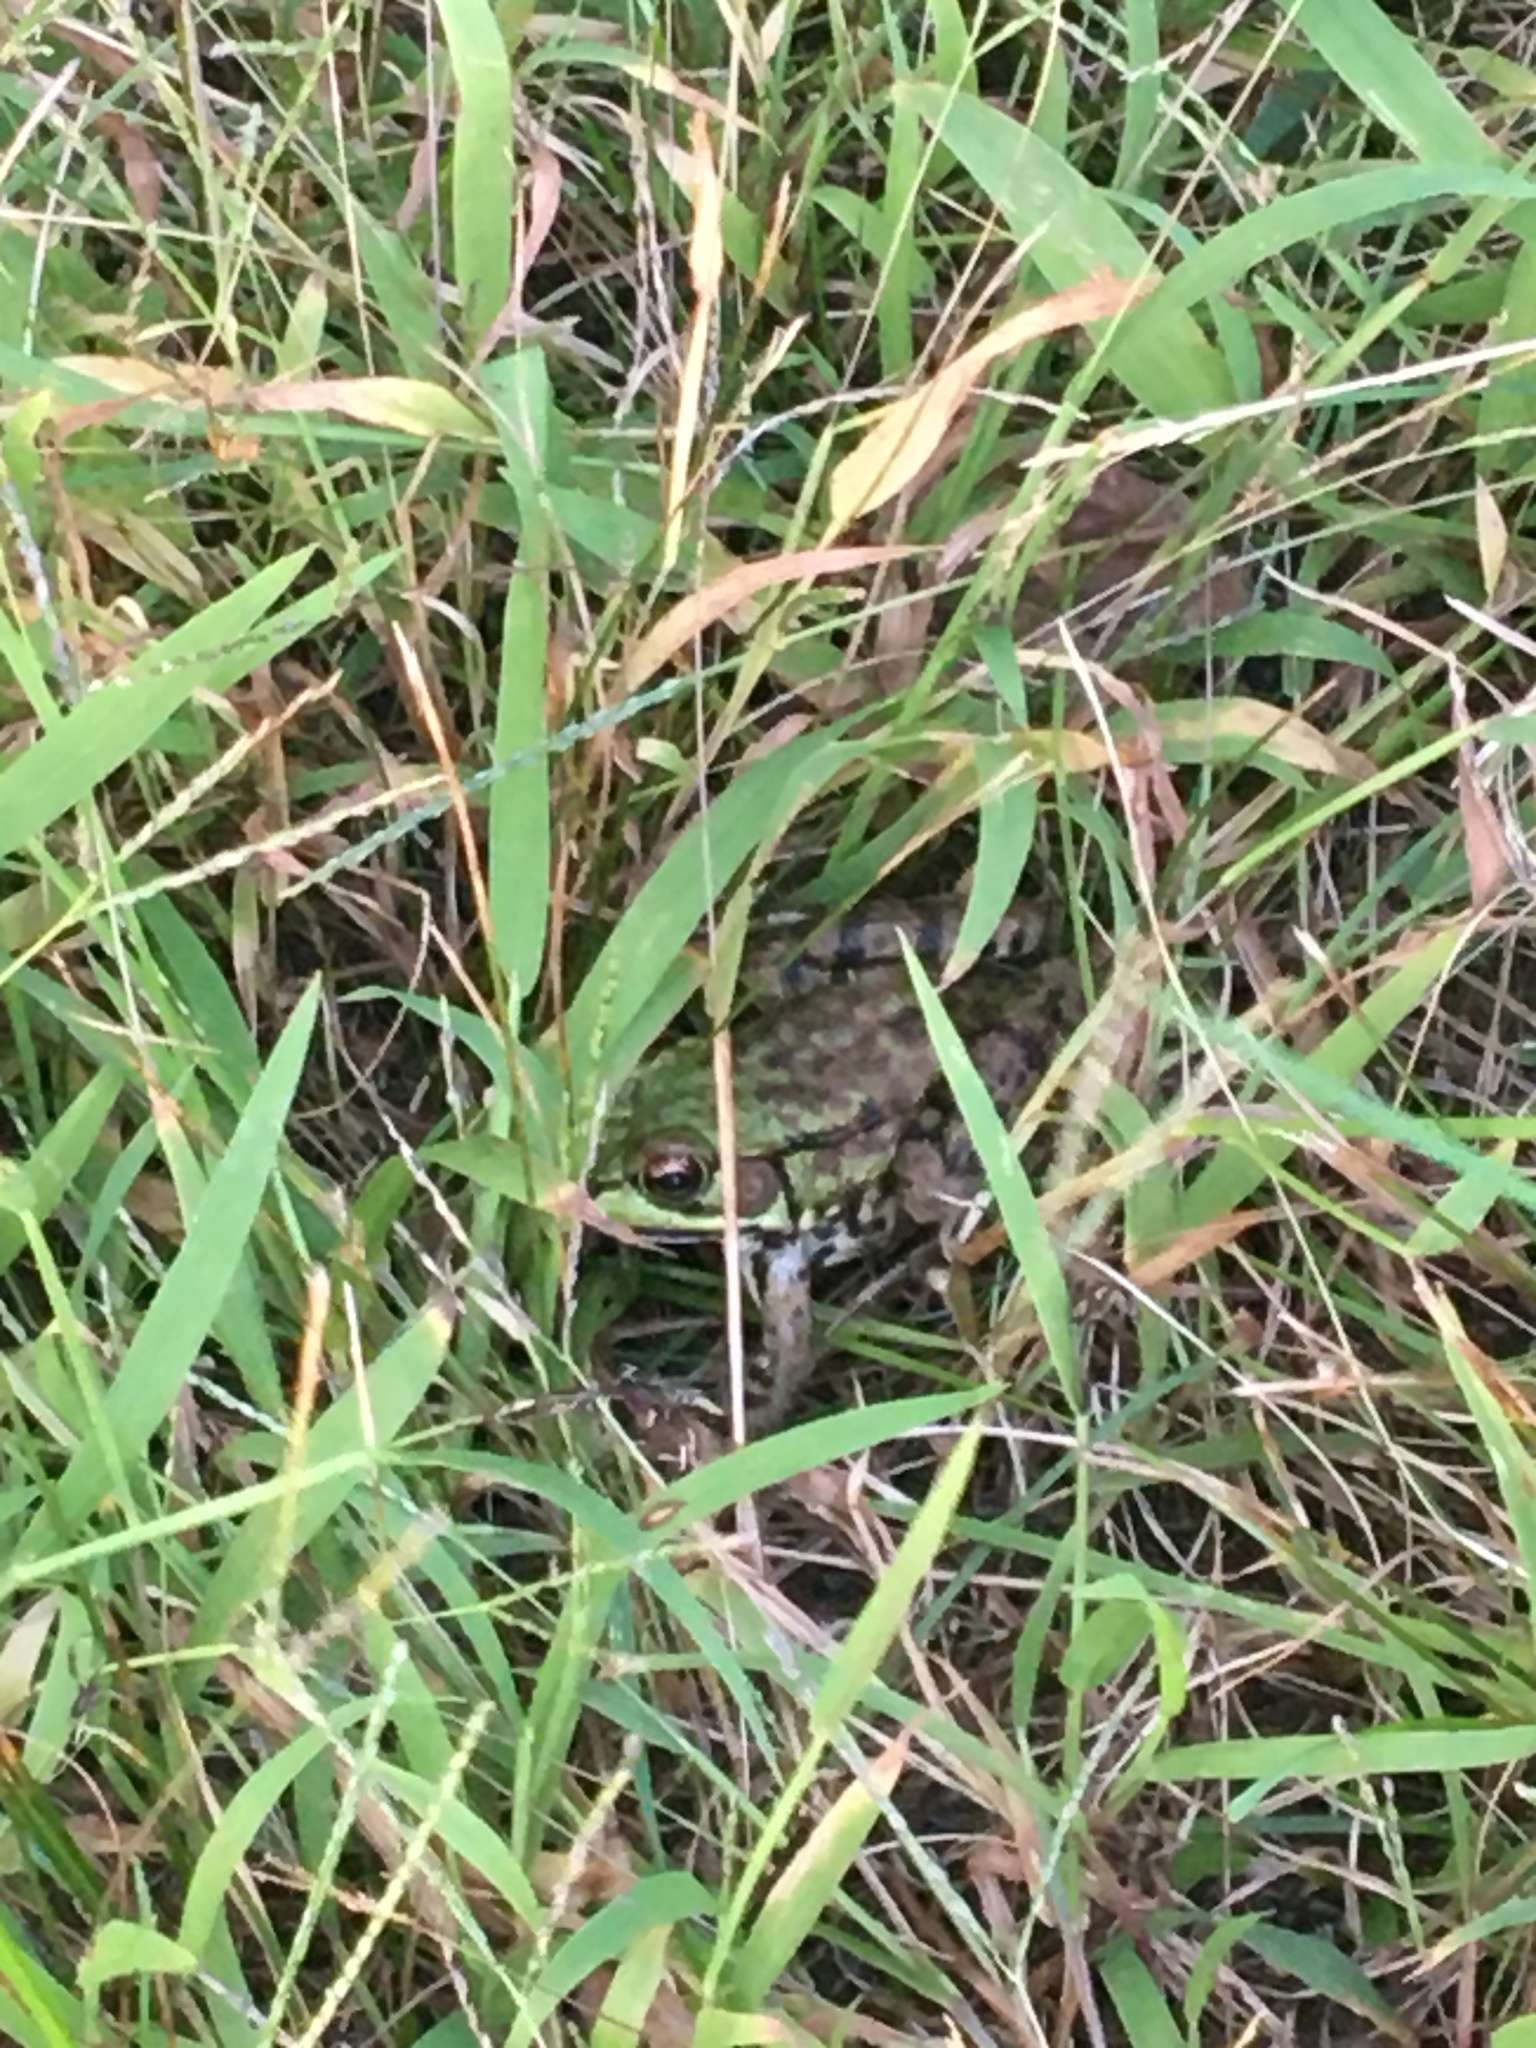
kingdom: Animalia
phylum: Chordata
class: Amphibia
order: Anura
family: Ranidae
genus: Lithobates
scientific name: Lithobates clamitans
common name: Green frog
